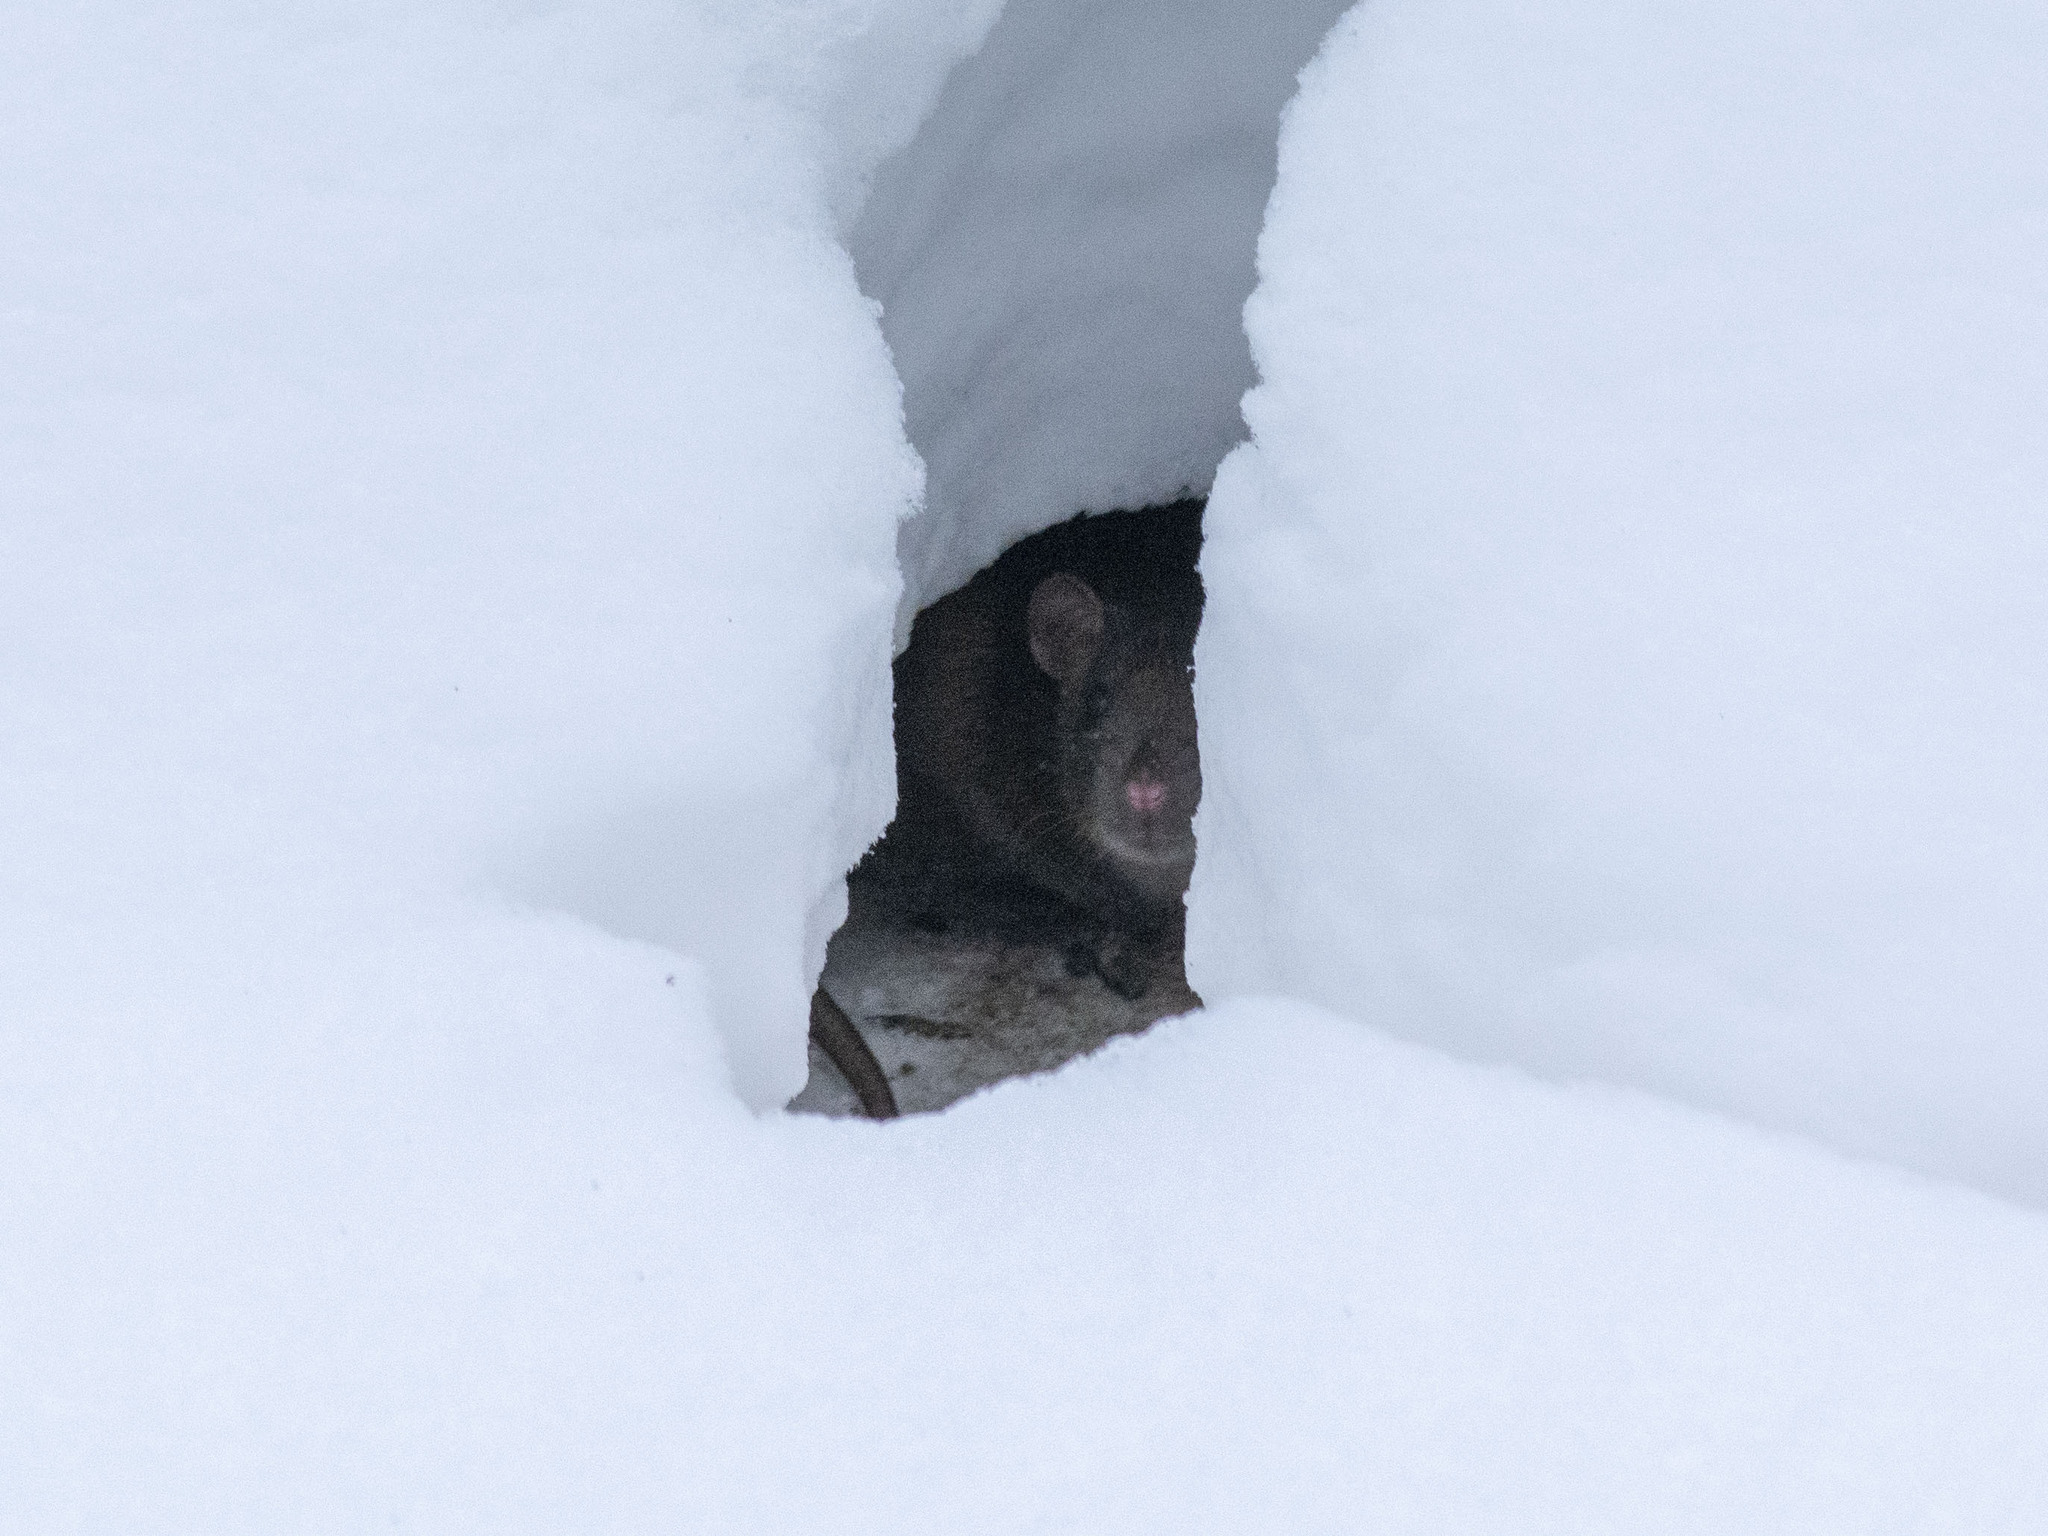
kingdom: Animalia
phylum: Chordata
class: Mammalia
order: Rodentia
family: Muridae
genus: Rattus
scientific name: Rattus norvegicus
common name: Brown rat
